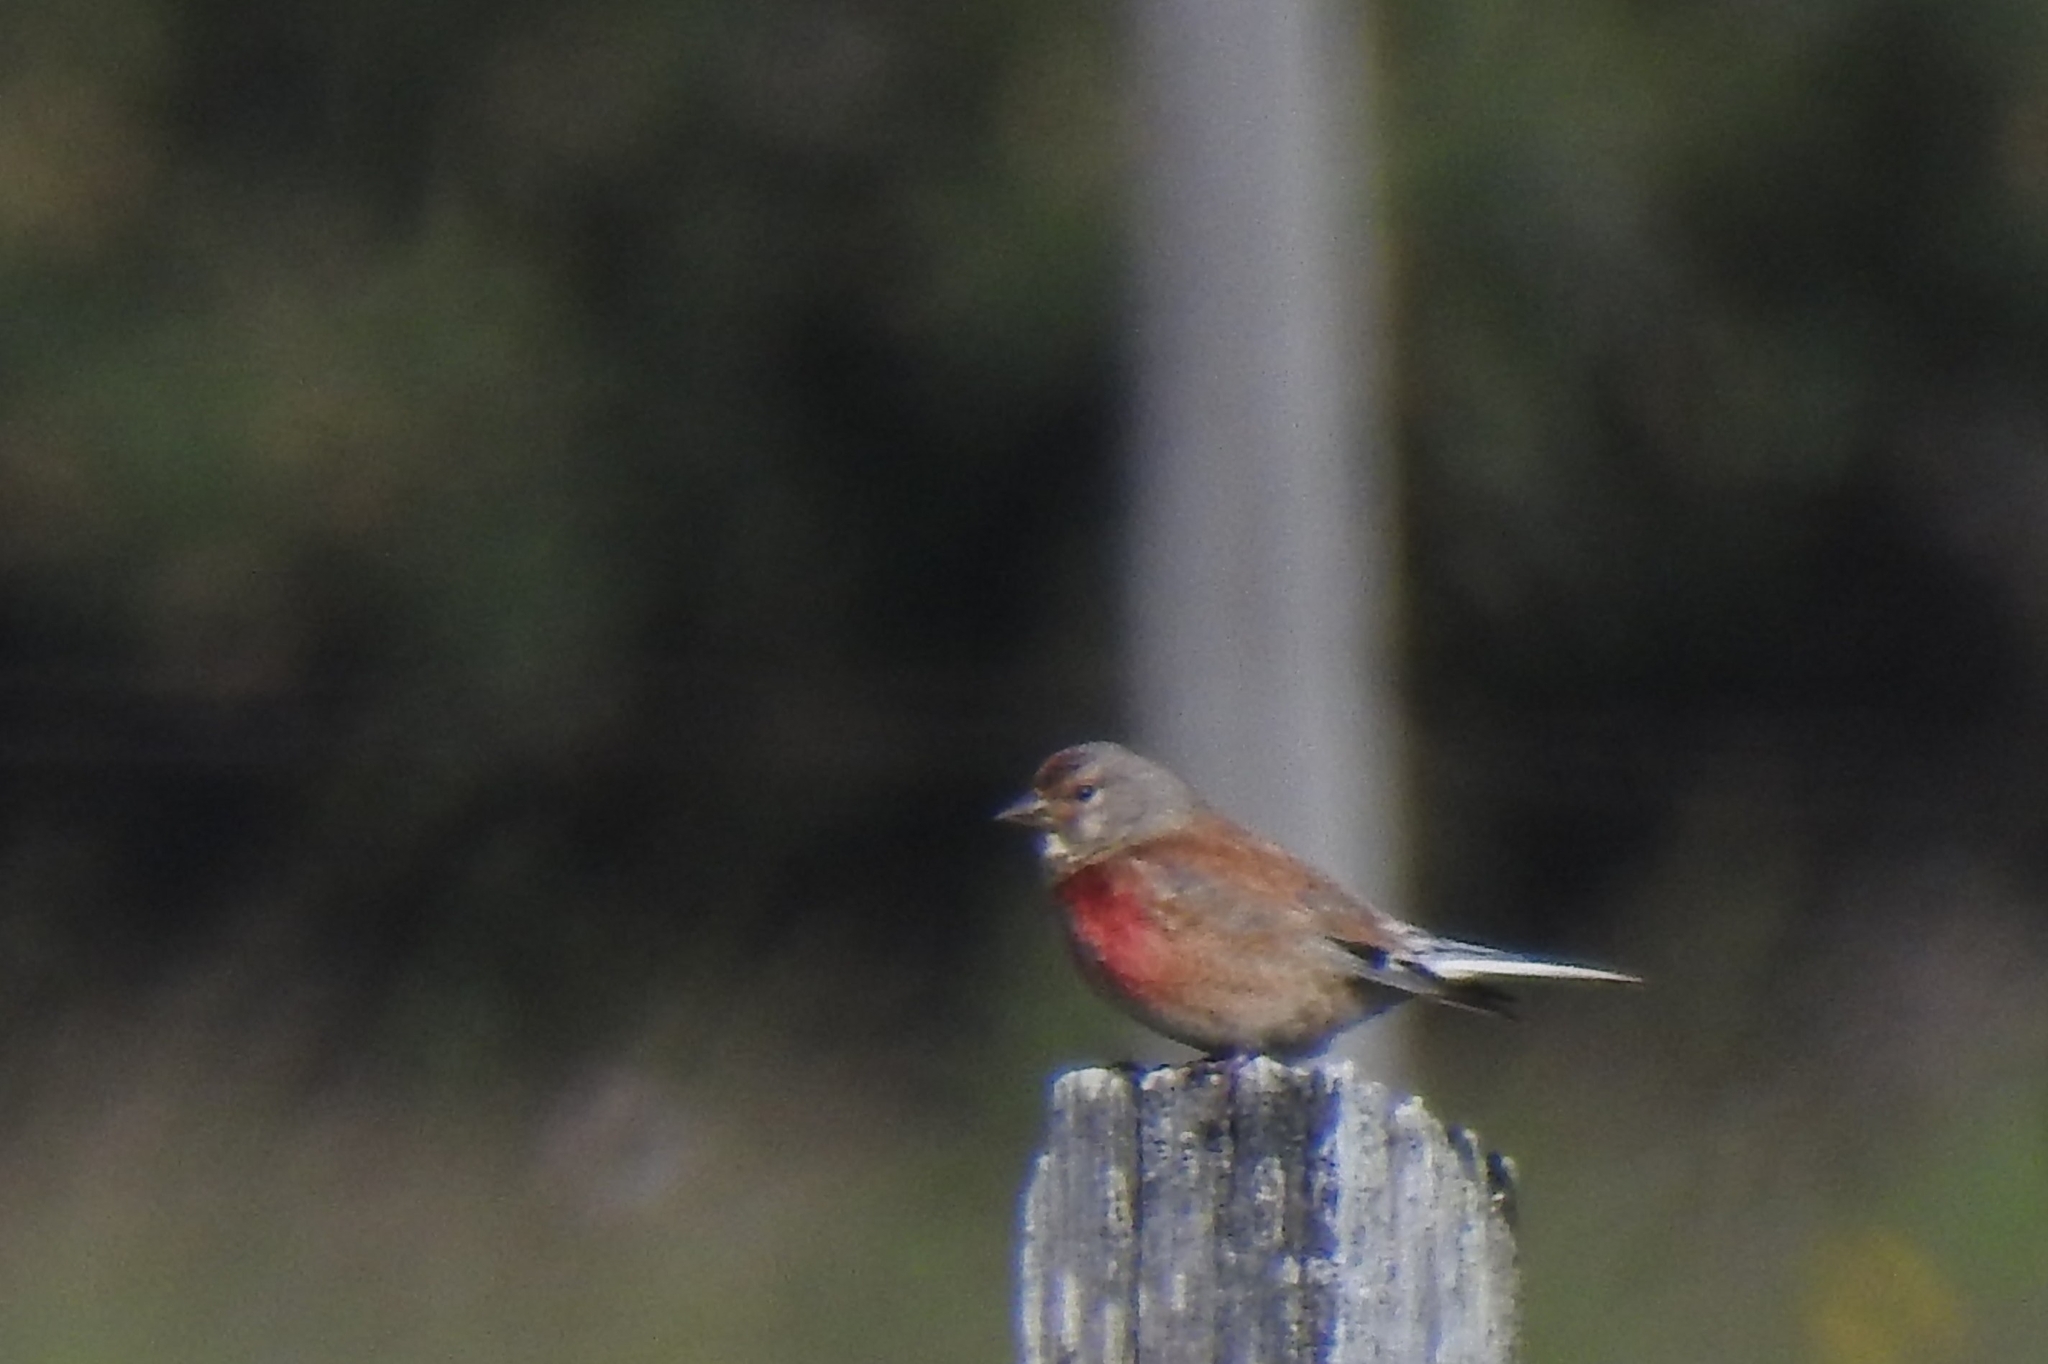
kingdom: Animalia
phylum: Chordata
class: Aves
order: Passeriformes
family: Fringillidae
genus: Linaria
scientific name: Linaria cannabina
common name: Common linnet
